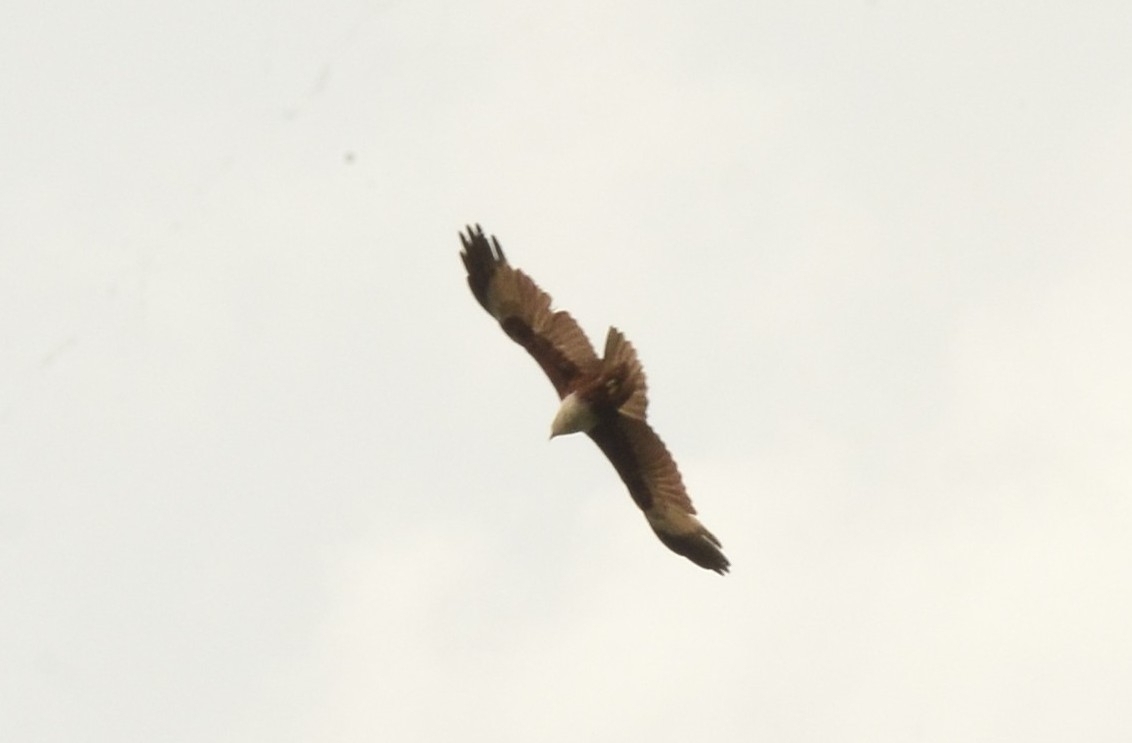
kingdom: Animalia
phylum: Chordata
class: Aves
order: Accipitriformes
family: Accipitridae
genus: Haliastur
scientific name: Haliastur indus
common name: Brahminy kite
